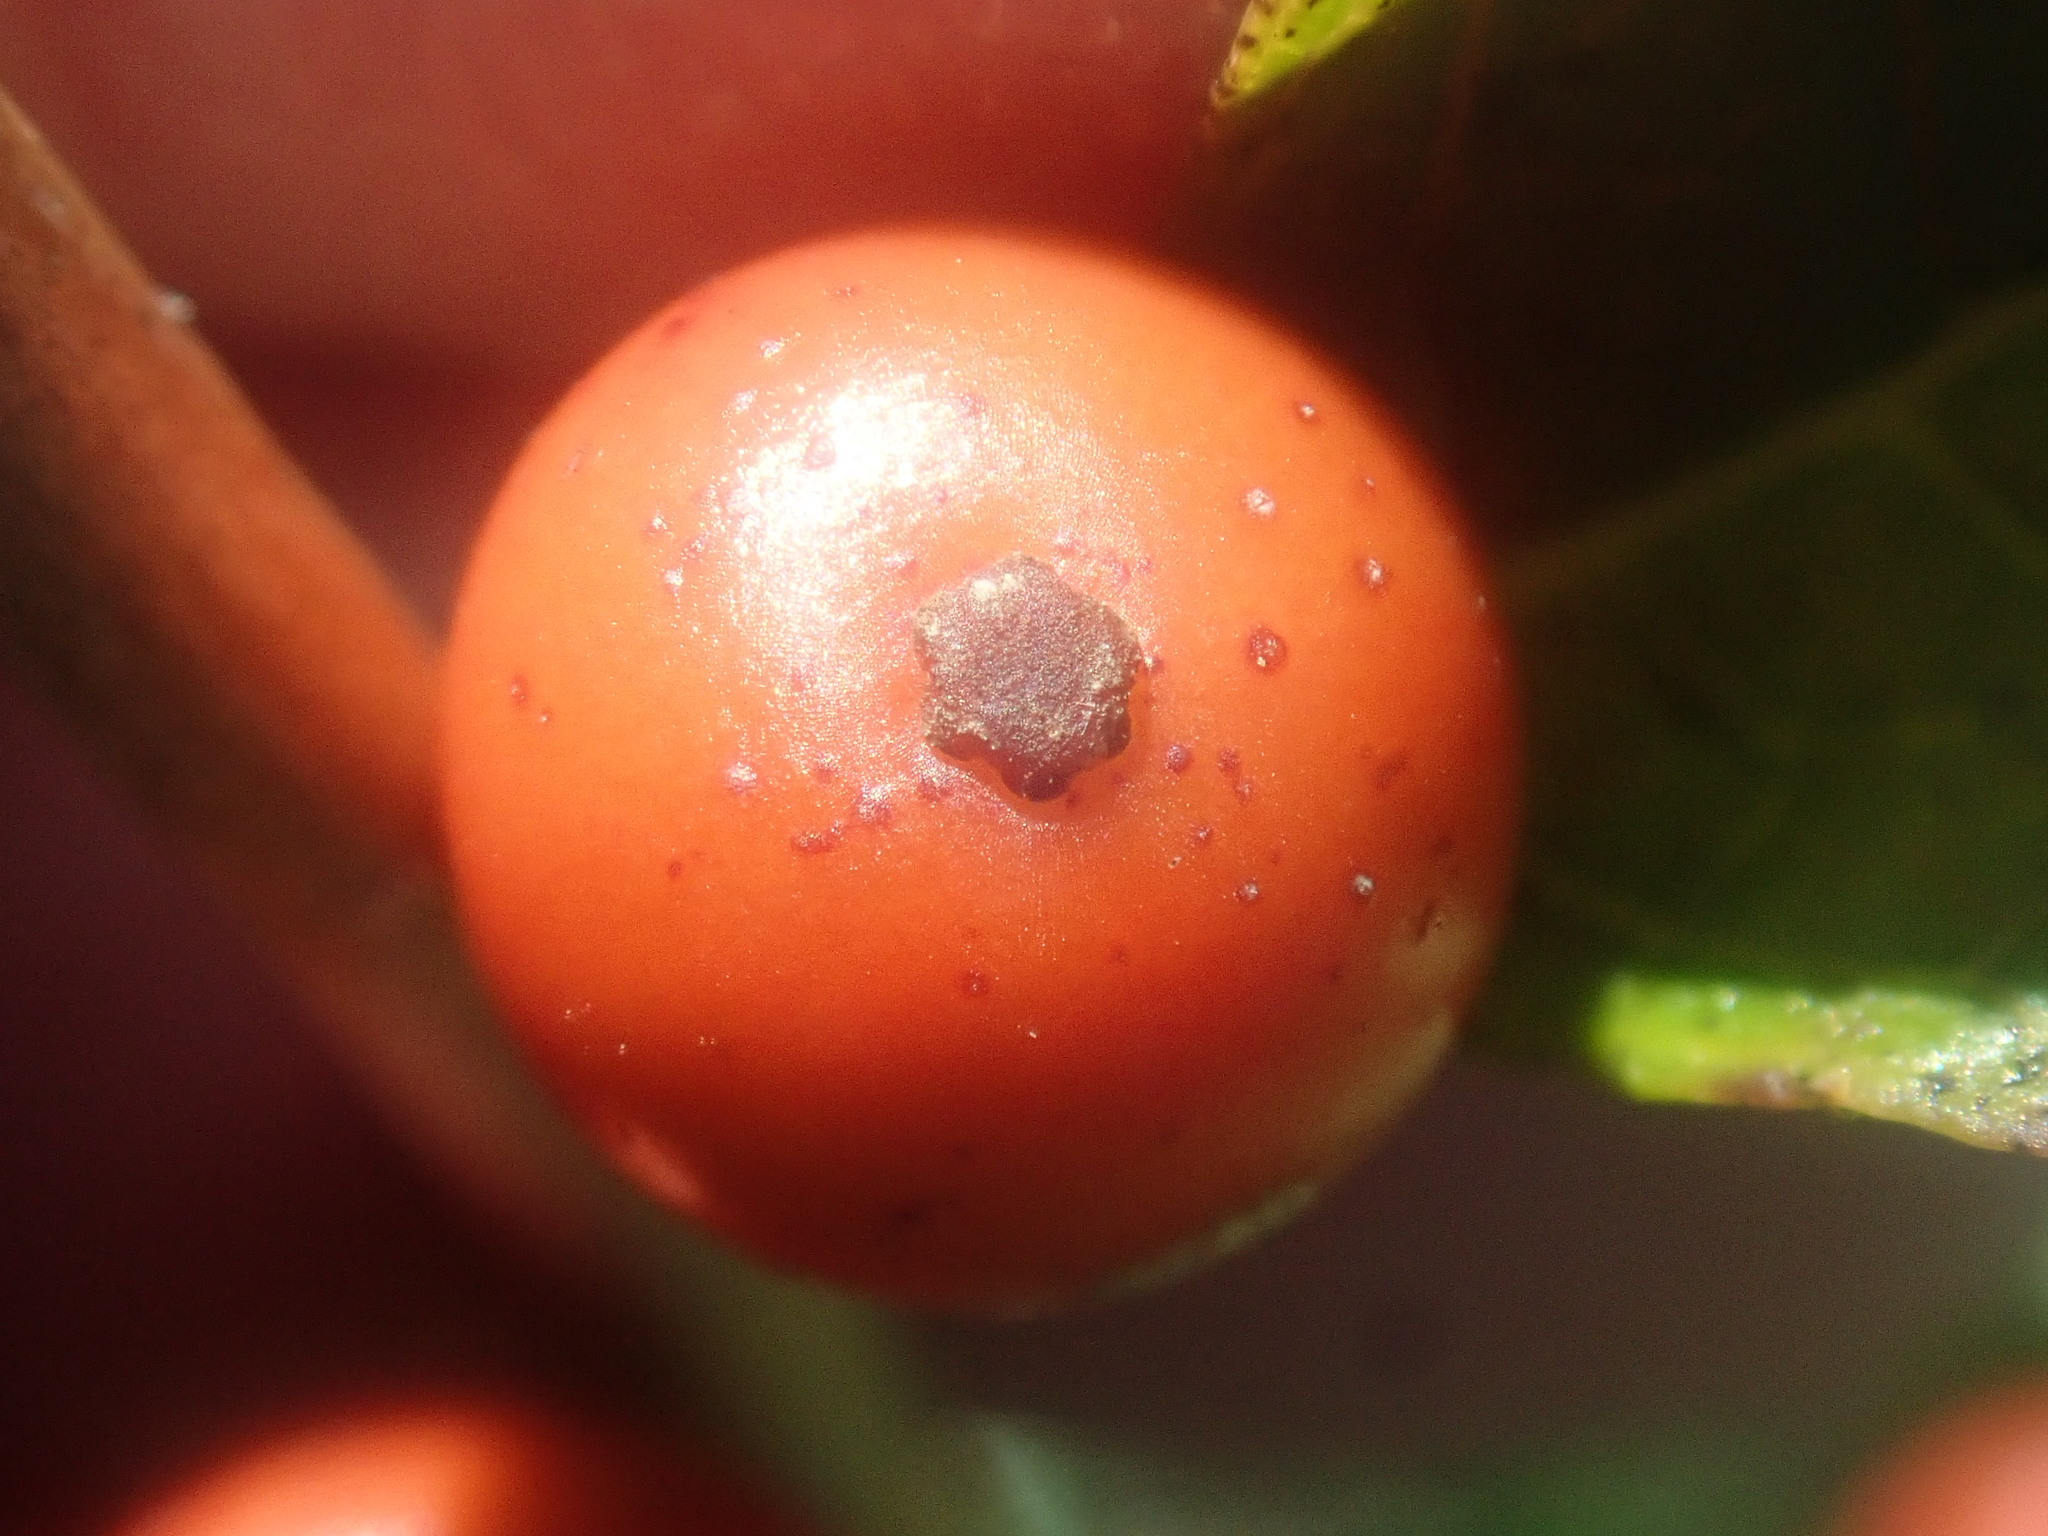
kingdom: Plantae
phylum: Tracheophyta
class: Magnoliopsida
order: Aquifoliales
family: Aquifoliaceae
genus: Ilex
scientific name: Ilex verticillata
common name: Virginia winterberry
